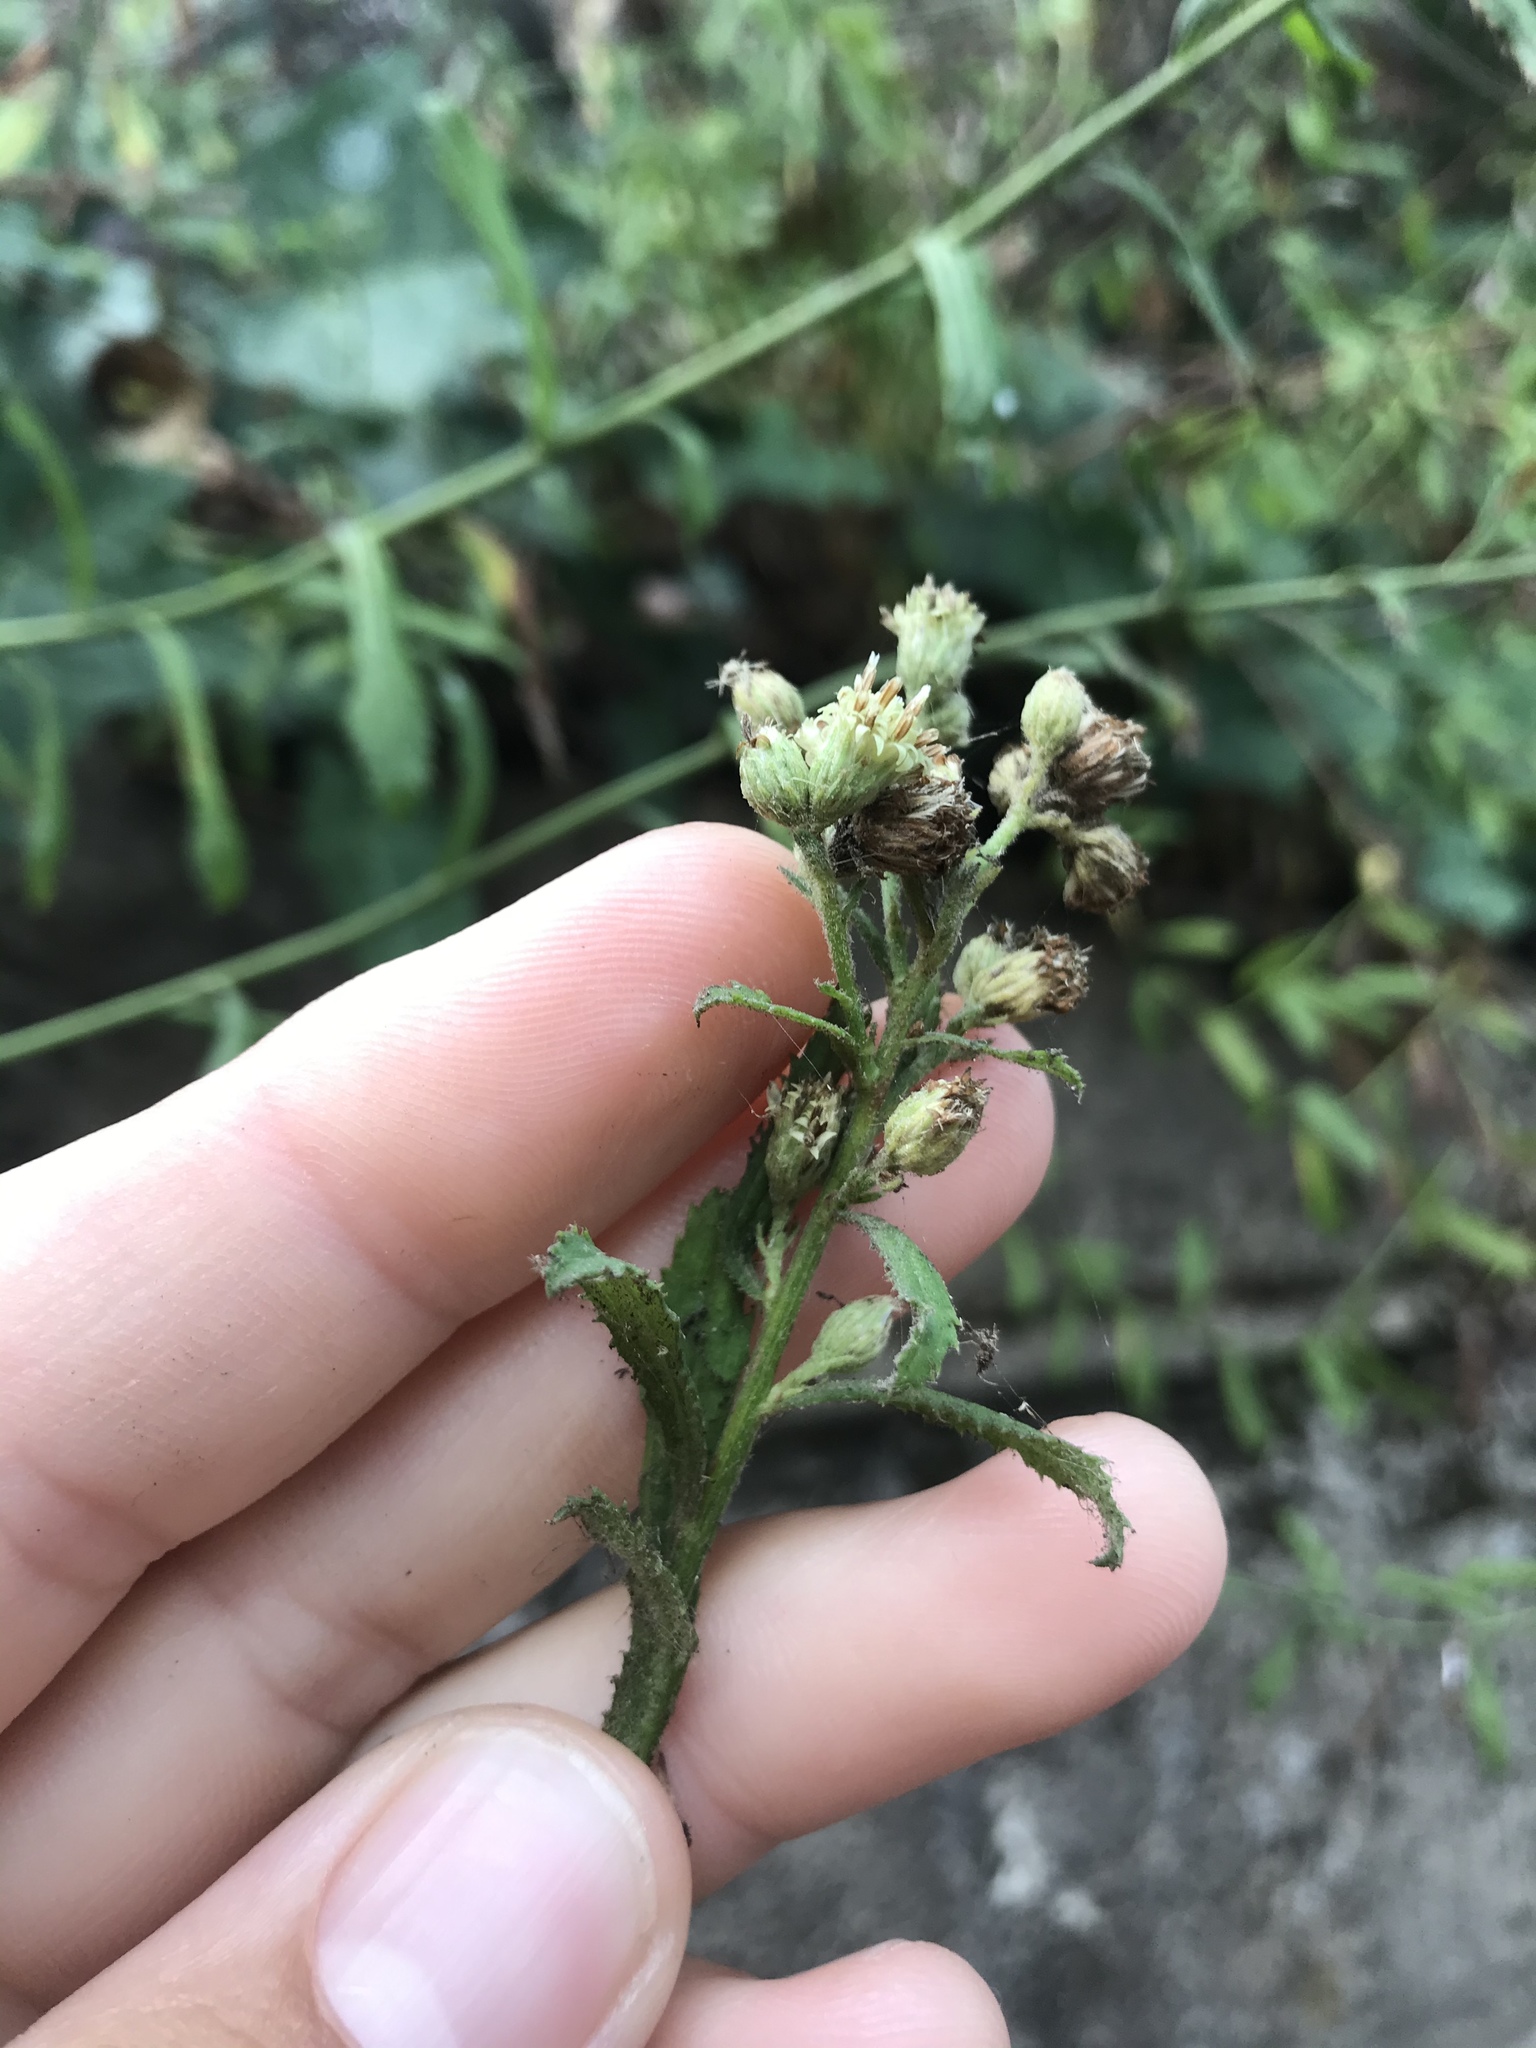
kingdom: Plantae
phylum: Tracheophyta
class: Magnoliopsida
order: Asterales
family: Asteraceae
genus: Baccharis
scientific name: Baccharis plummerae
